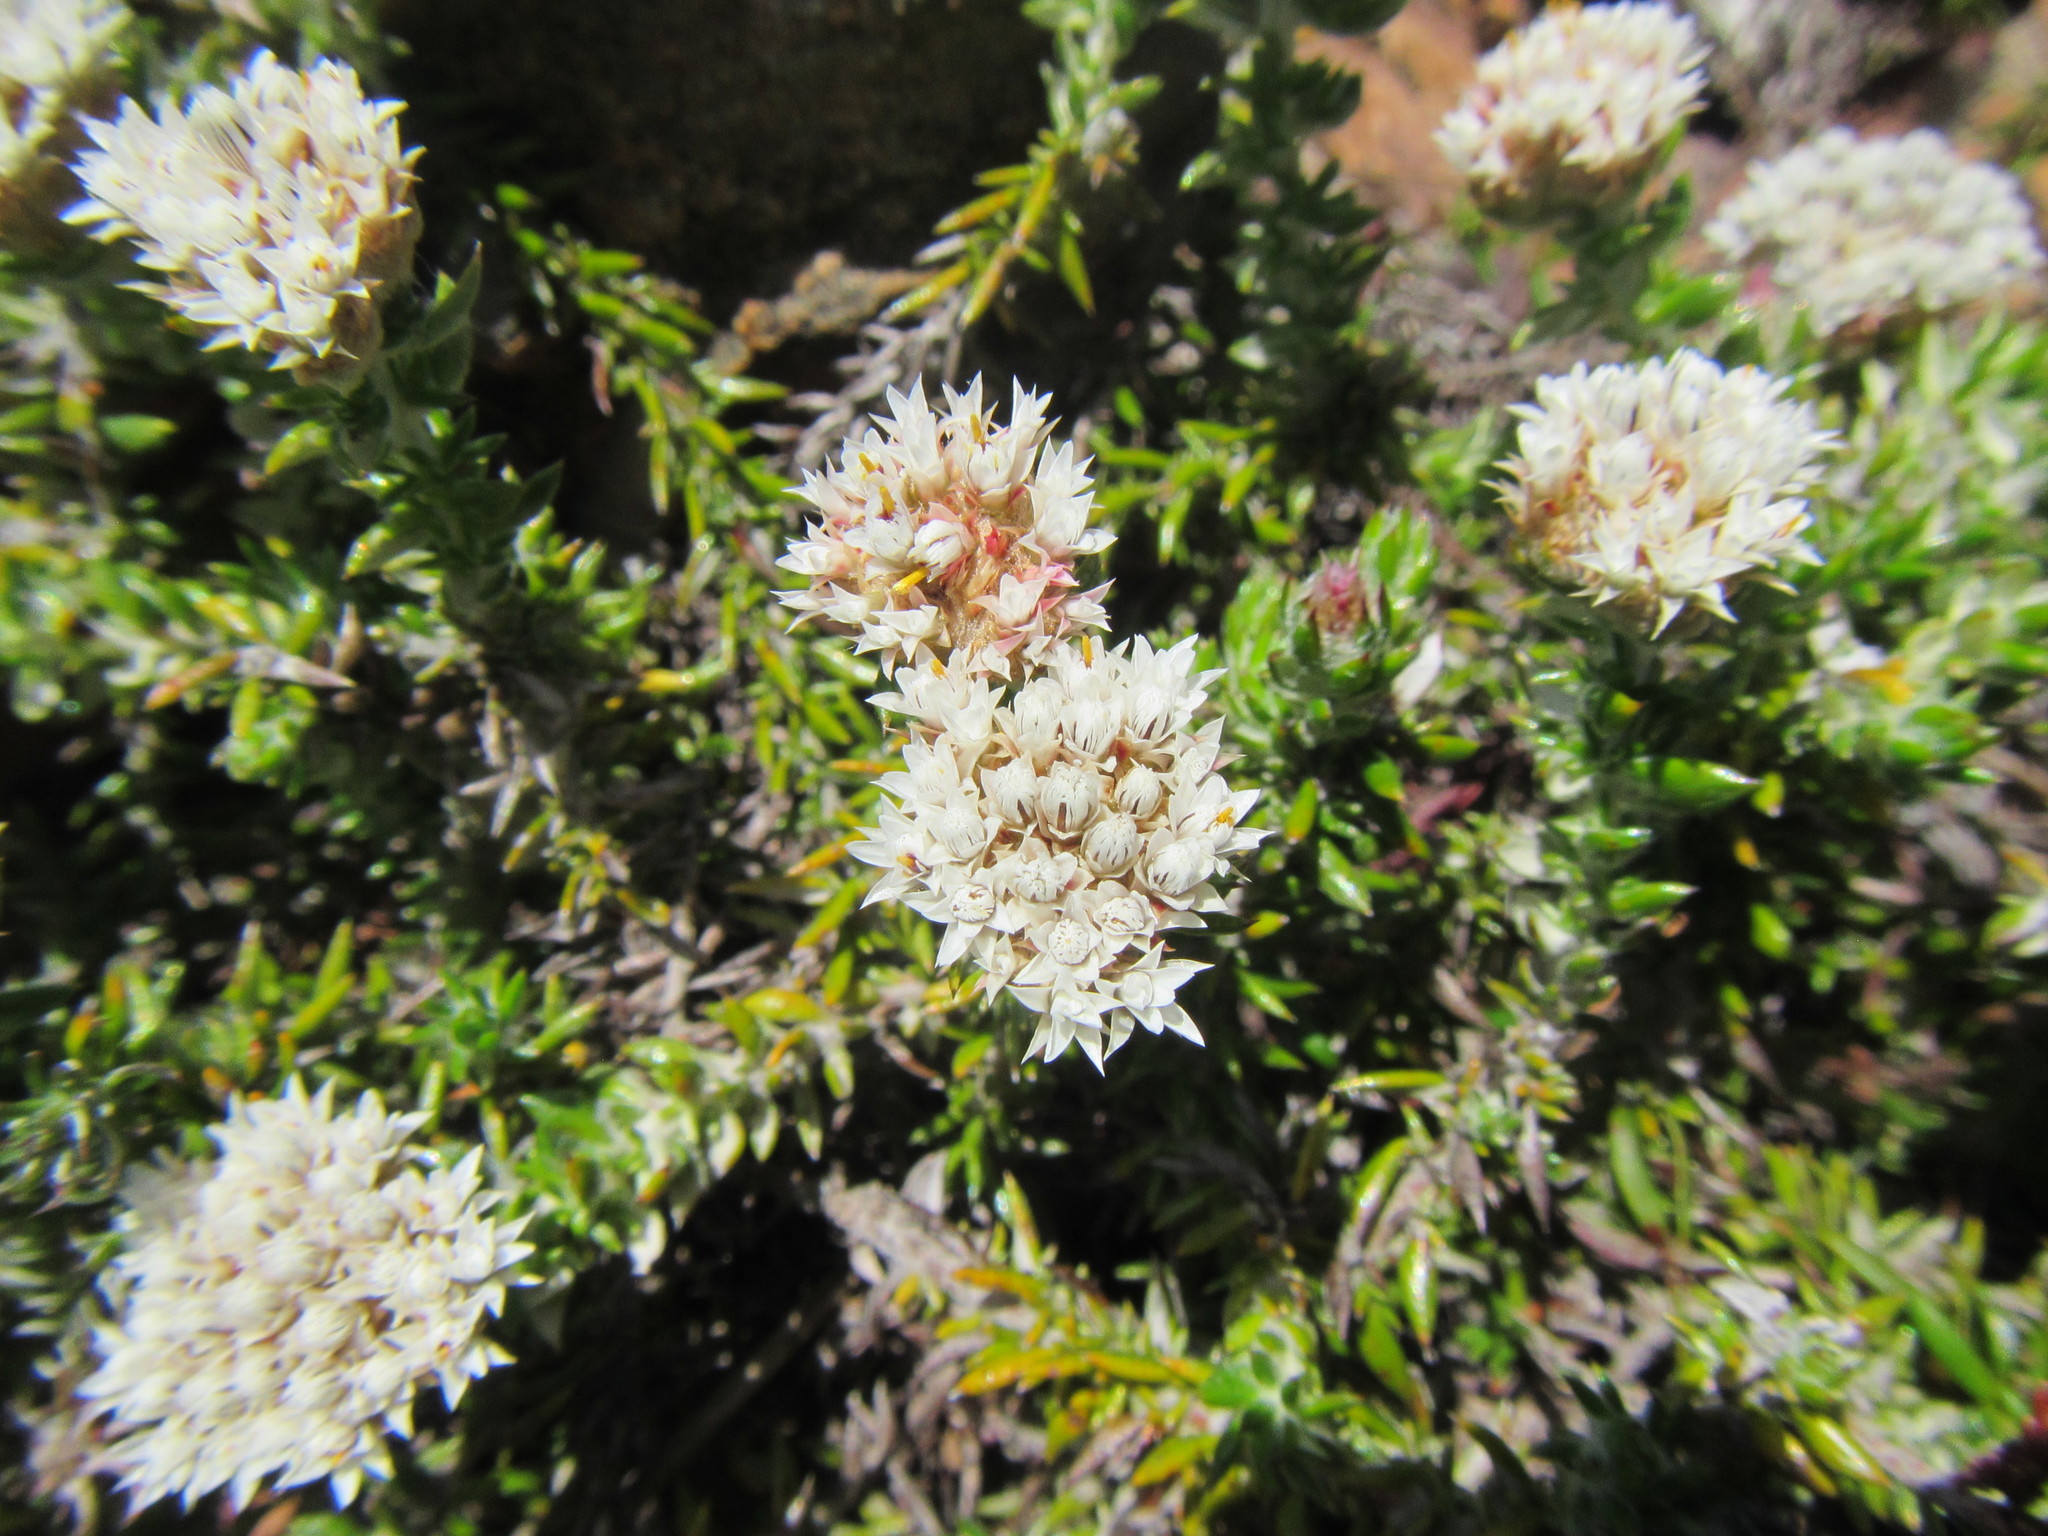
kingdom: Plantae
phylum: Tracheophyta
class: Magnoliopsida
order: Asterales
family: Asteraceae
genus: Metalasia
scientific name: Metalasia inversa
